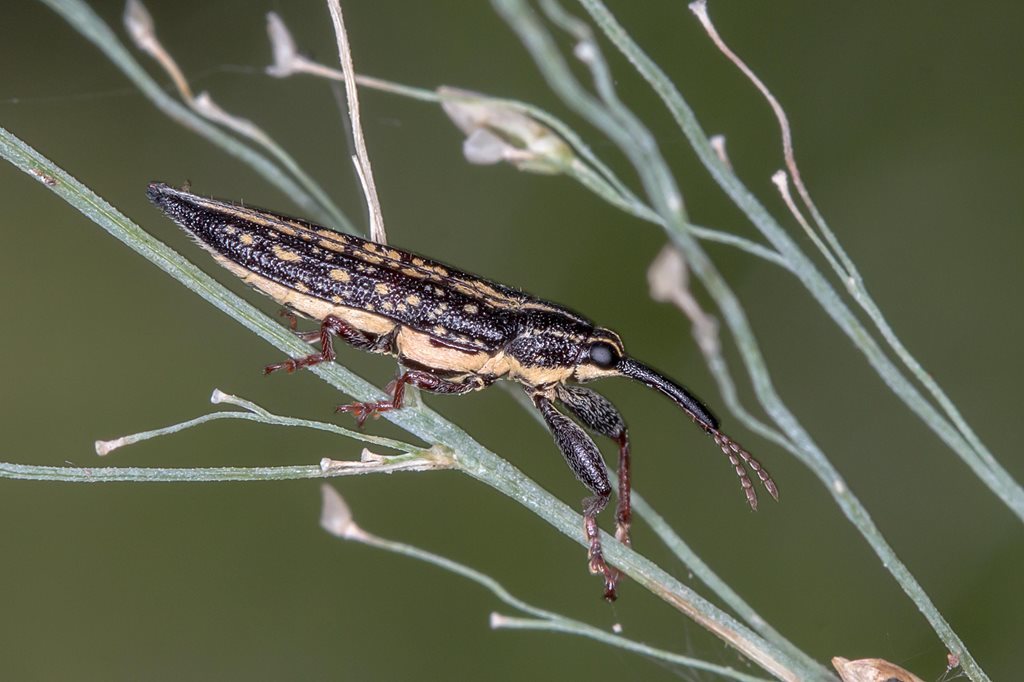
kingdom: Animalia
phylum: Arthropoda
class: Insecta
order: Coleoptera
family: Belidae
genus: Rhinotia
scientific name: Rhinotia lineata
